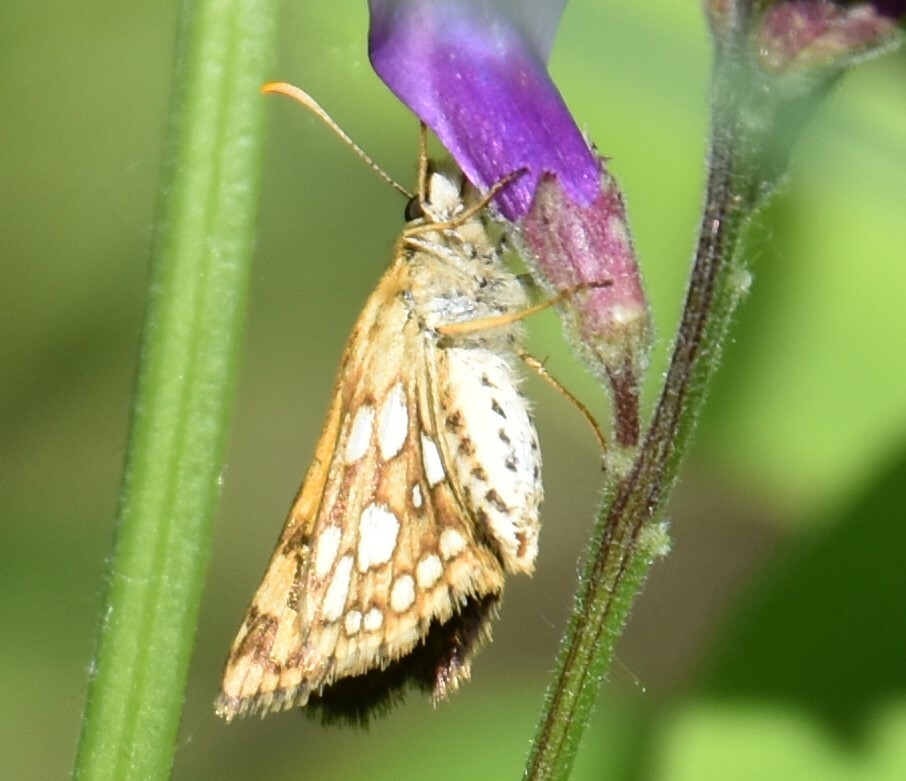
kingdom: Animalia
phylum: Arthropoda
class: Insecta
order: Lepidoptera
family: Nymphalidae
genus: Phyciodes
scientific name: Phyciodes tharos
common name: Pearl crescent
